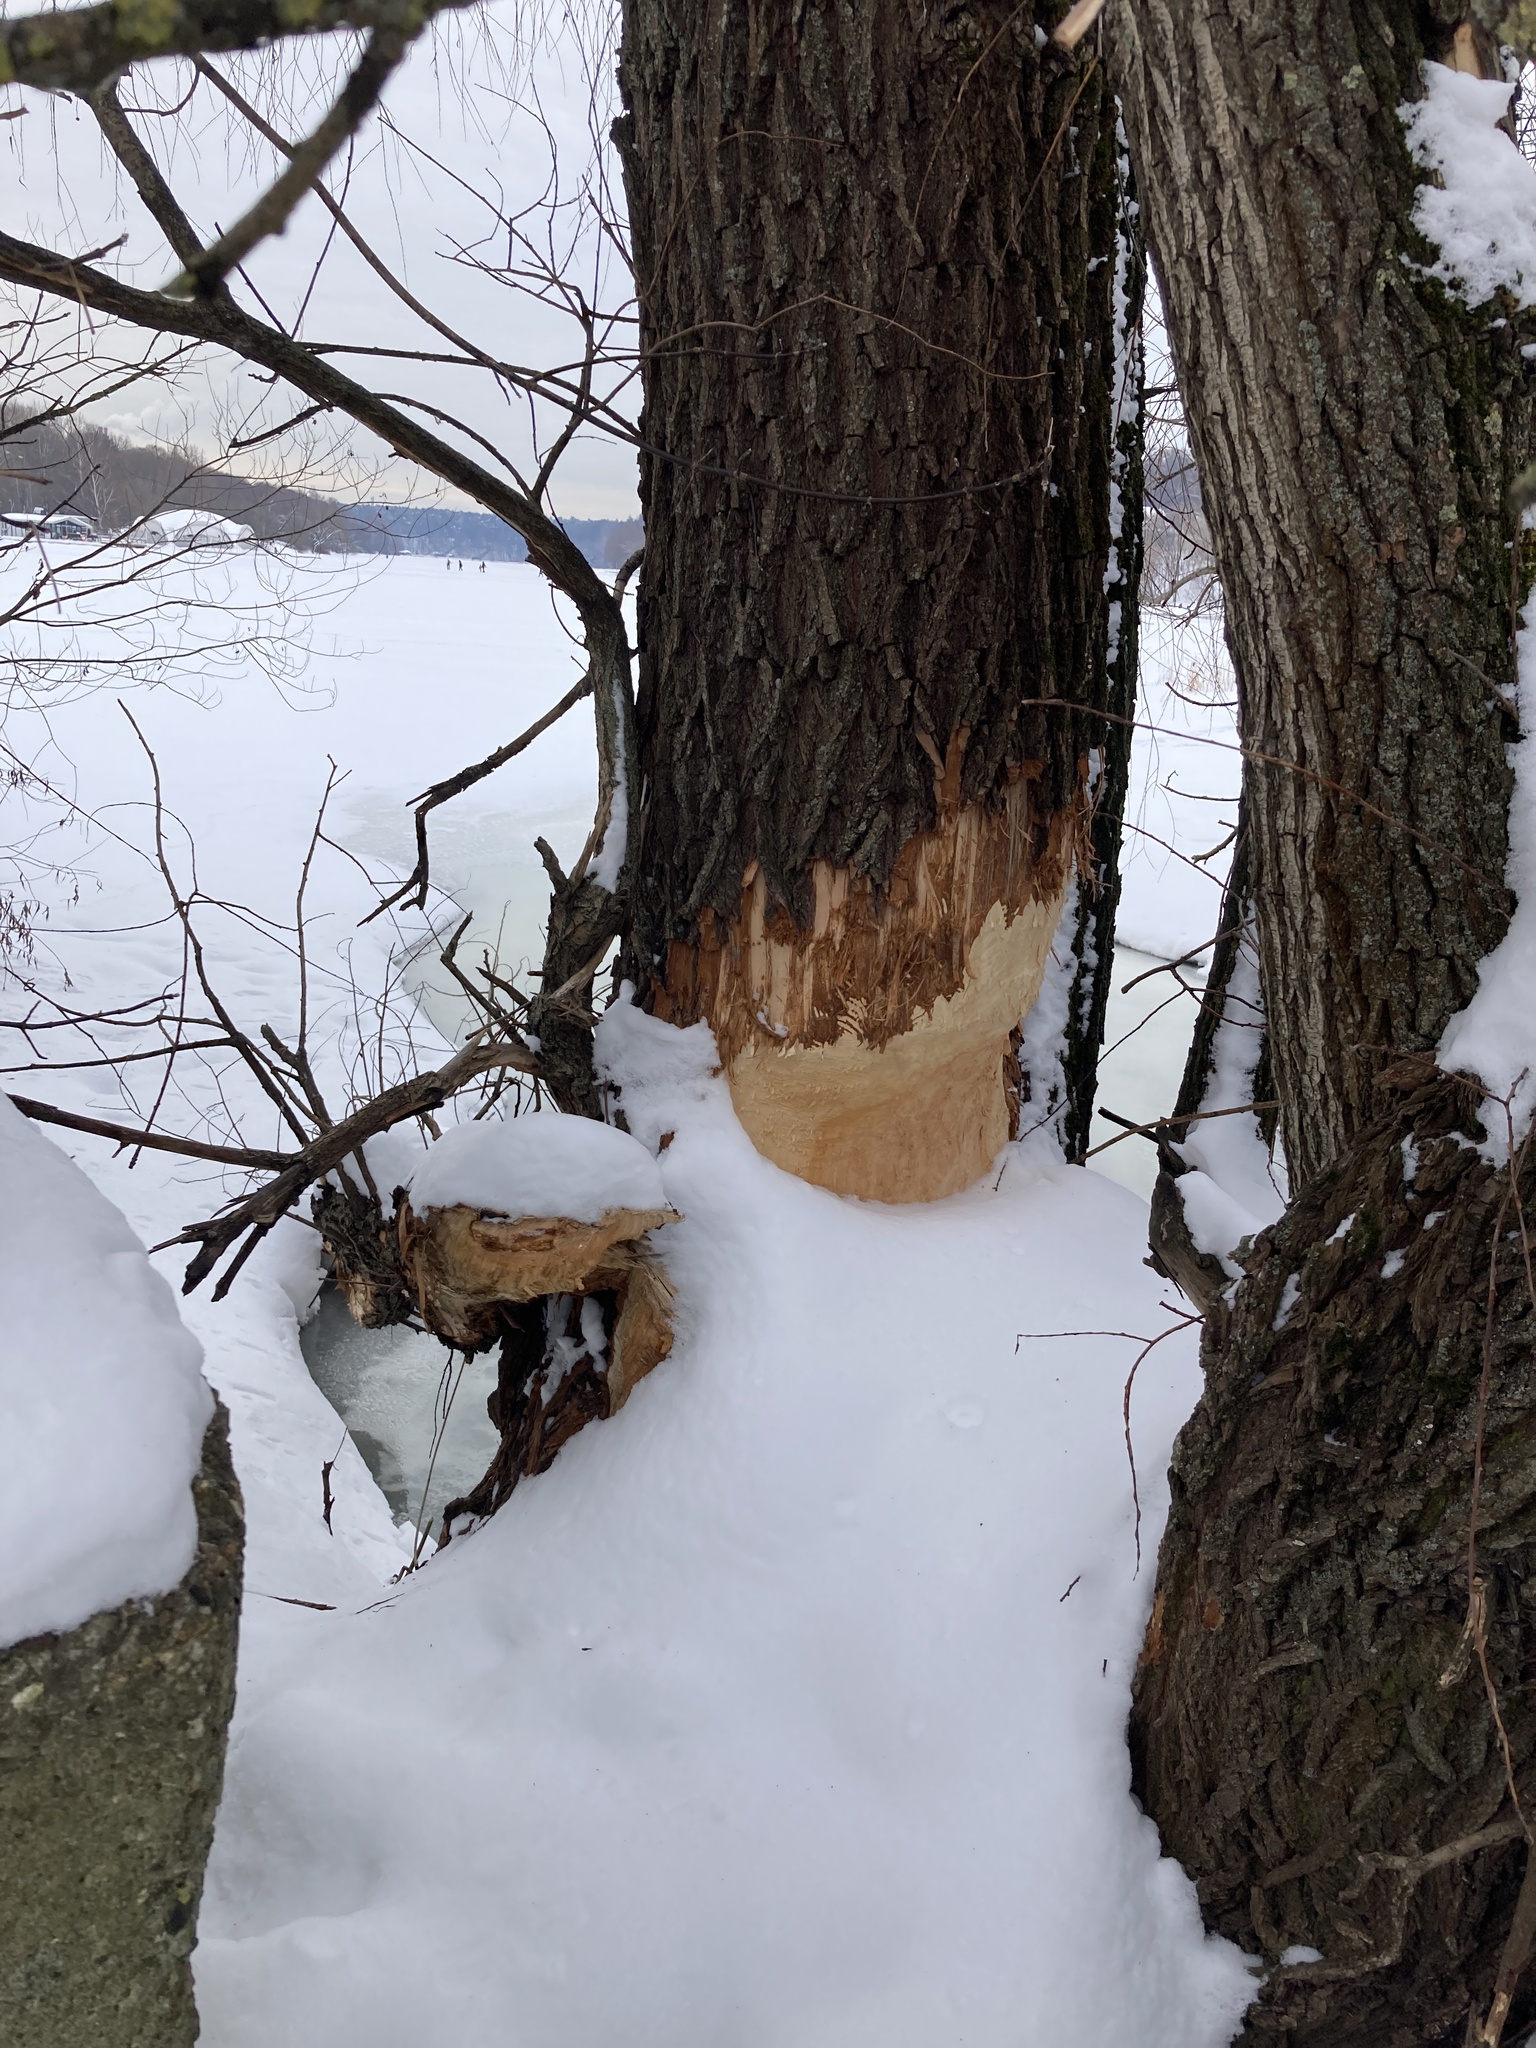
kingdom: Animalia
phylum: Chordata
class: Mammalia
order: Rodentia
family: Castoridae
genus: Castor
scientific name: Castor fiber
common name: Eurasian beaver
